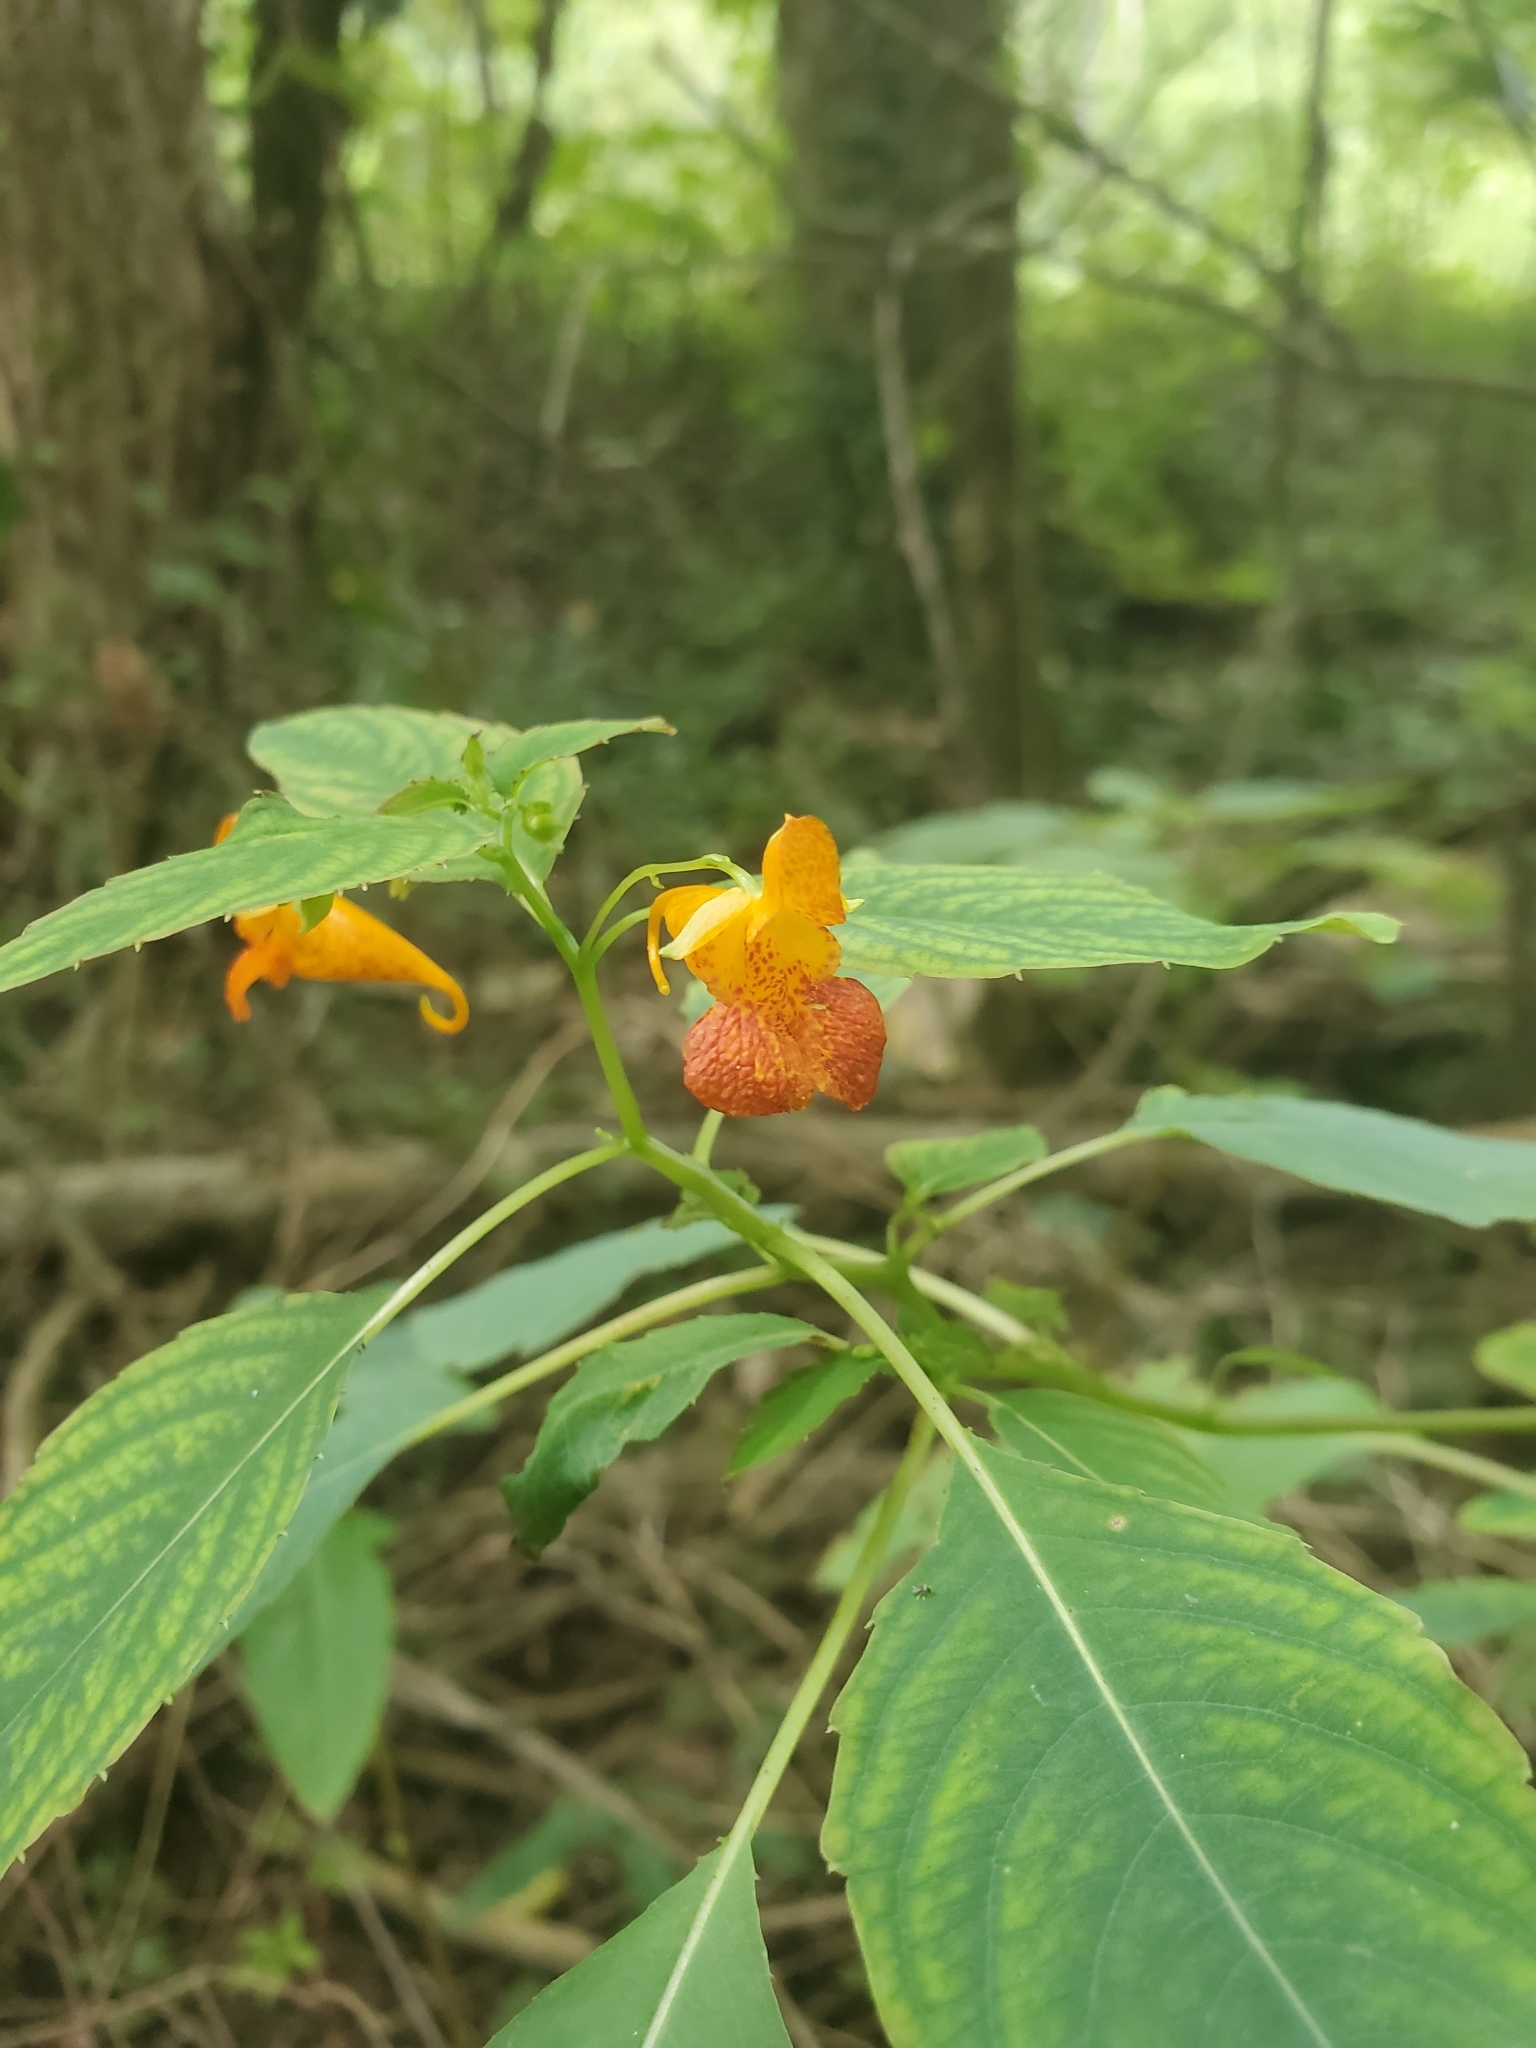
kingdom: Plantae
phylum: Tracheophyta
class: Magnoliopsida
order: Ericales
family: Balsaminaceae
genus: Impatiens
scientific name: Impatiens capensis
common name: Orange balsam
